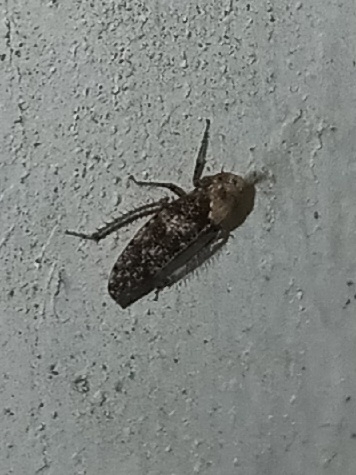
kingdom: Animalia
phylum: Arthropoda
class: Insecta
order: Hemiptera
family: Cicadellidae
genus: Paraphlepsius
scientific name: Paraphlepsius collitus
